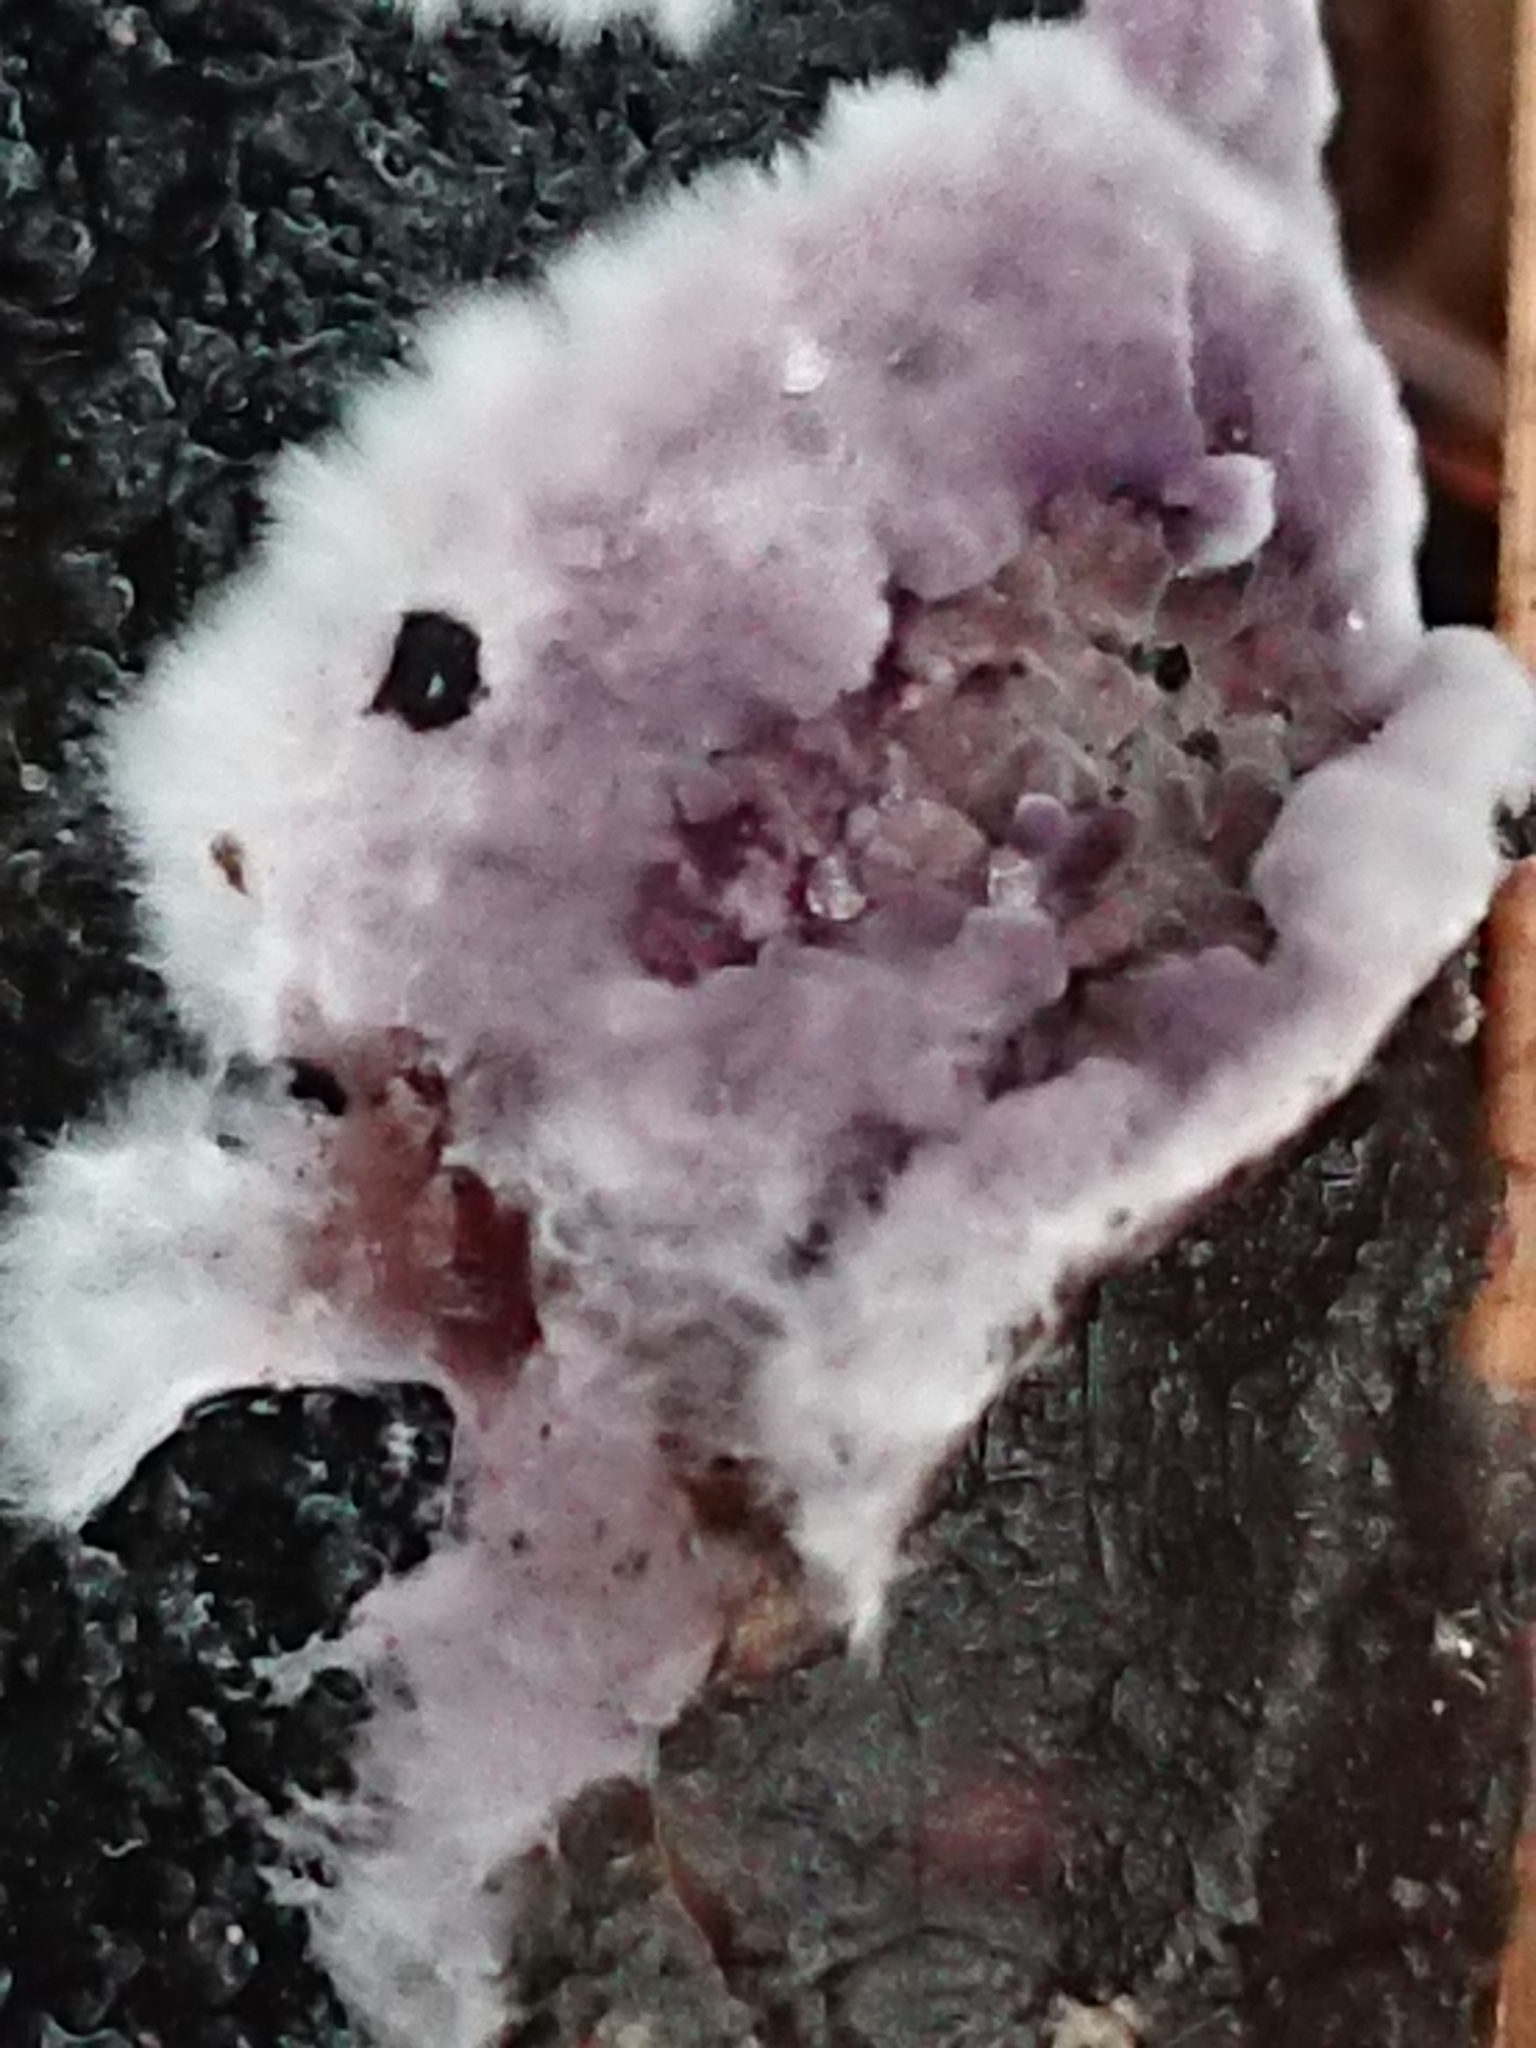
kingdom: Fungi
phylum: Basidiomycota
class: Agaricomycetes
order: Agaricales
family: Cyphellaceae
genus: Chondrostereum
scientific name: Chondrostereum purpureum
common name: Silver leaf disease
